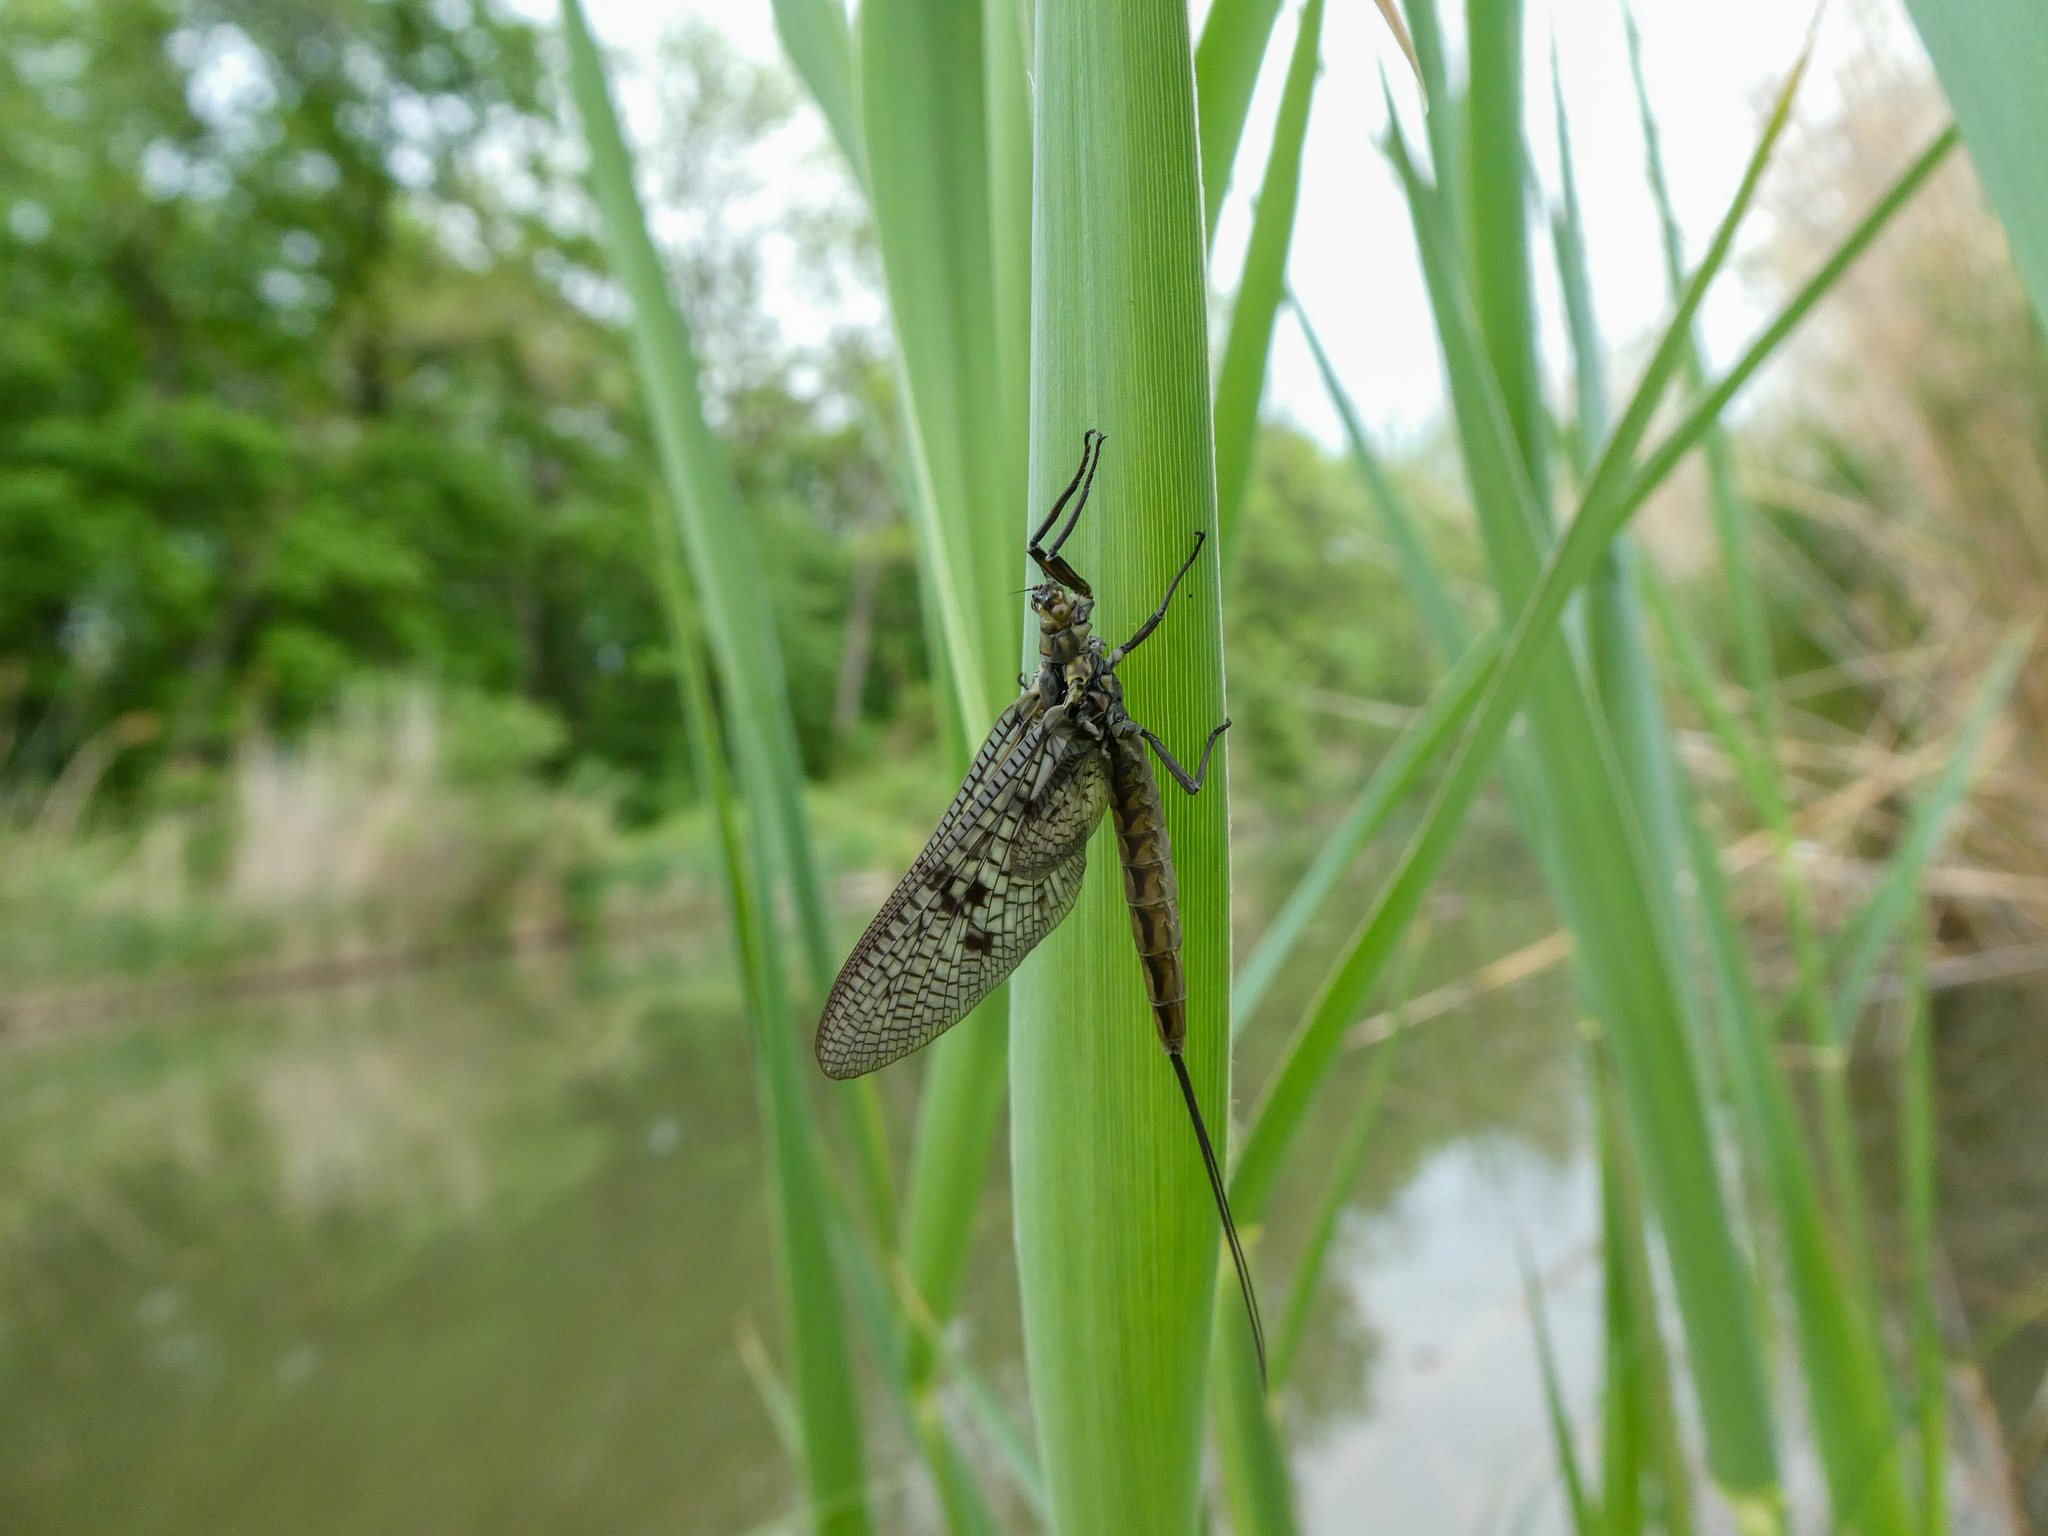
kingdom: Animalia
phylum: Arthropoda
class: Insecta
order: Ephemeroptera
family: Ephemeridae
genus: Ephemera
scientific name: Ephemera vulgata
